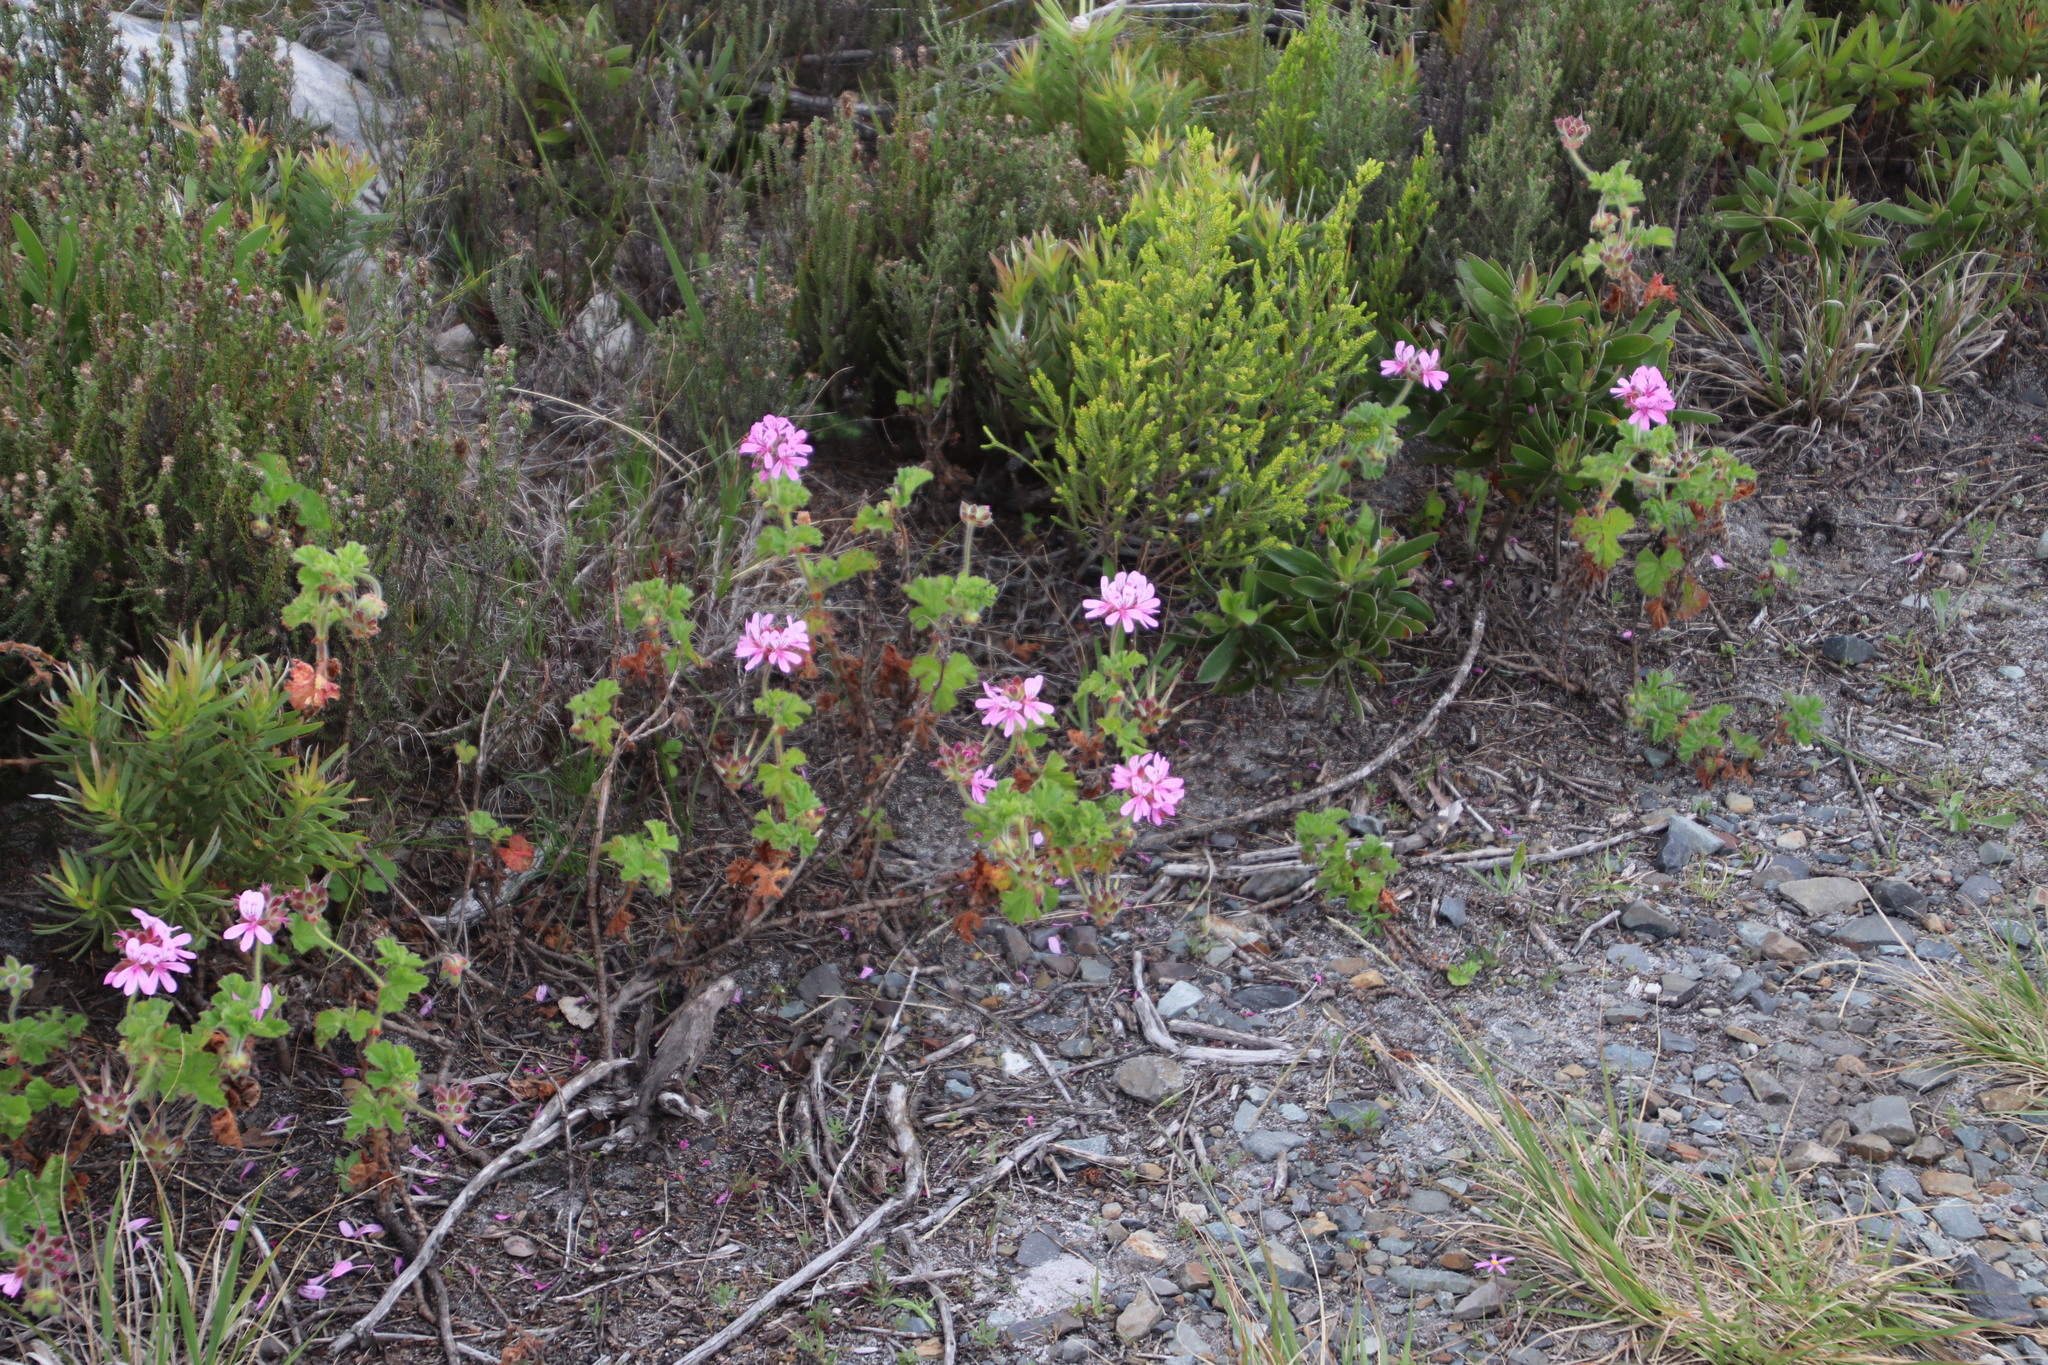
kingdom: Plantae
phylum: Tracheophyta
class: Magnoliopsida
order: Geraniales
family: Geraniaceae
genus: Pelargonium
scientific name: Pelargonium capitatum
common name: Rose scented geranium
